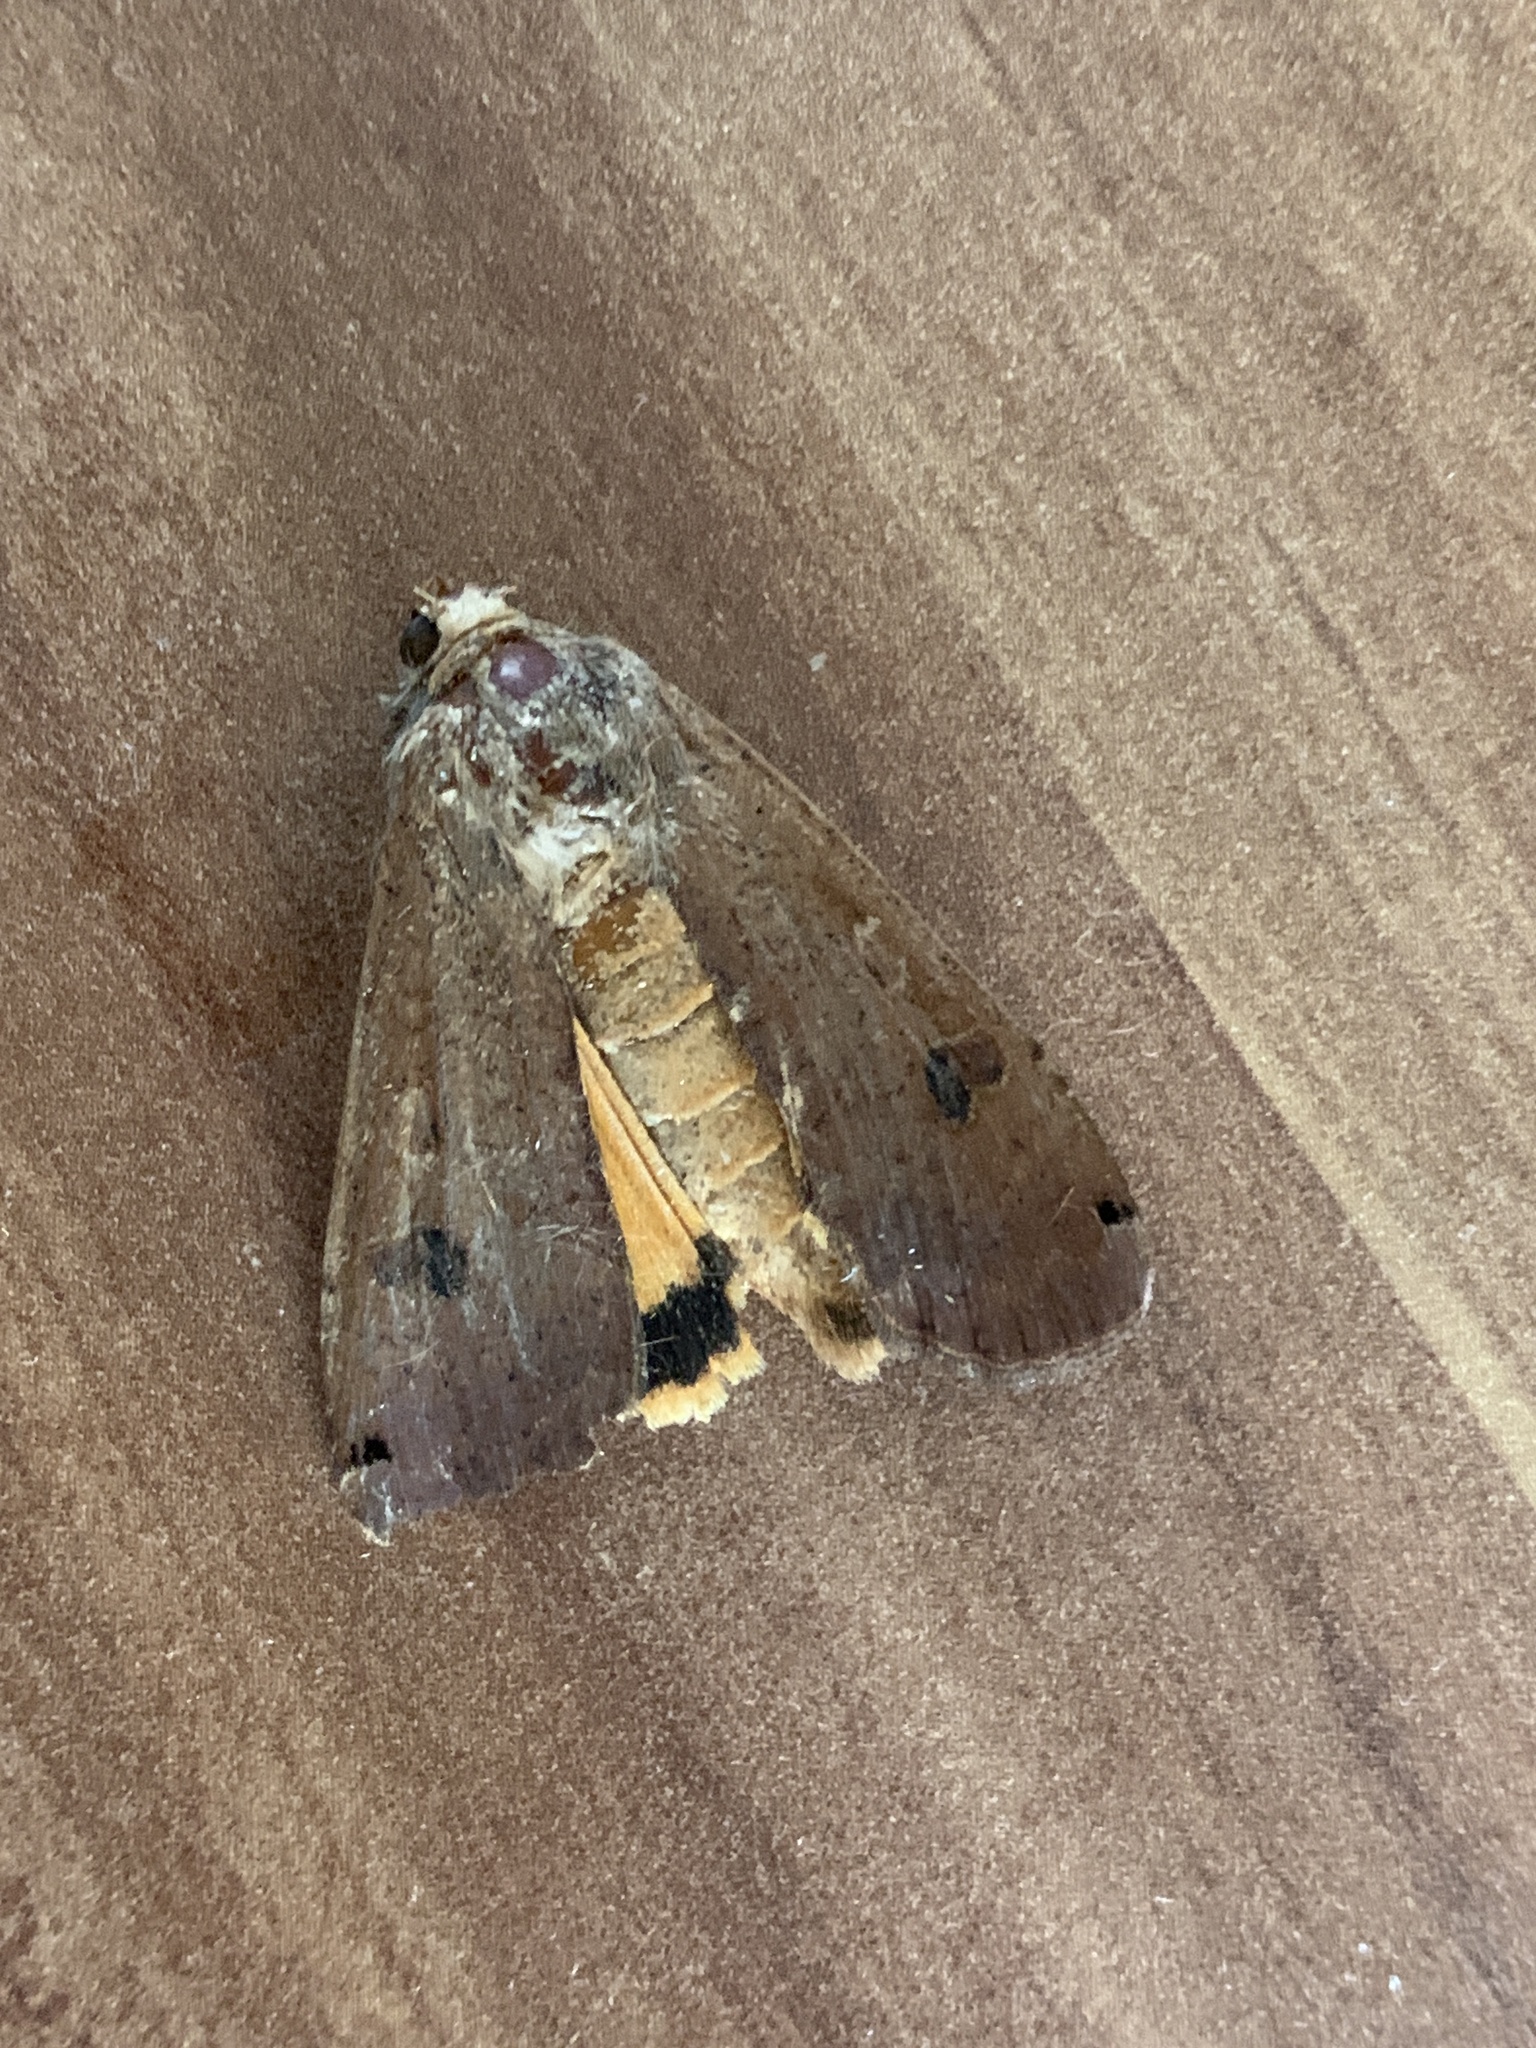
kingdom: Animalia
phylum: Arthropoda
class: Insecta
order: Lepidoptera
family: Noctuidae
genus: Noctua
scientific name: Noctua pronuba
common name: Large yellow underwing
